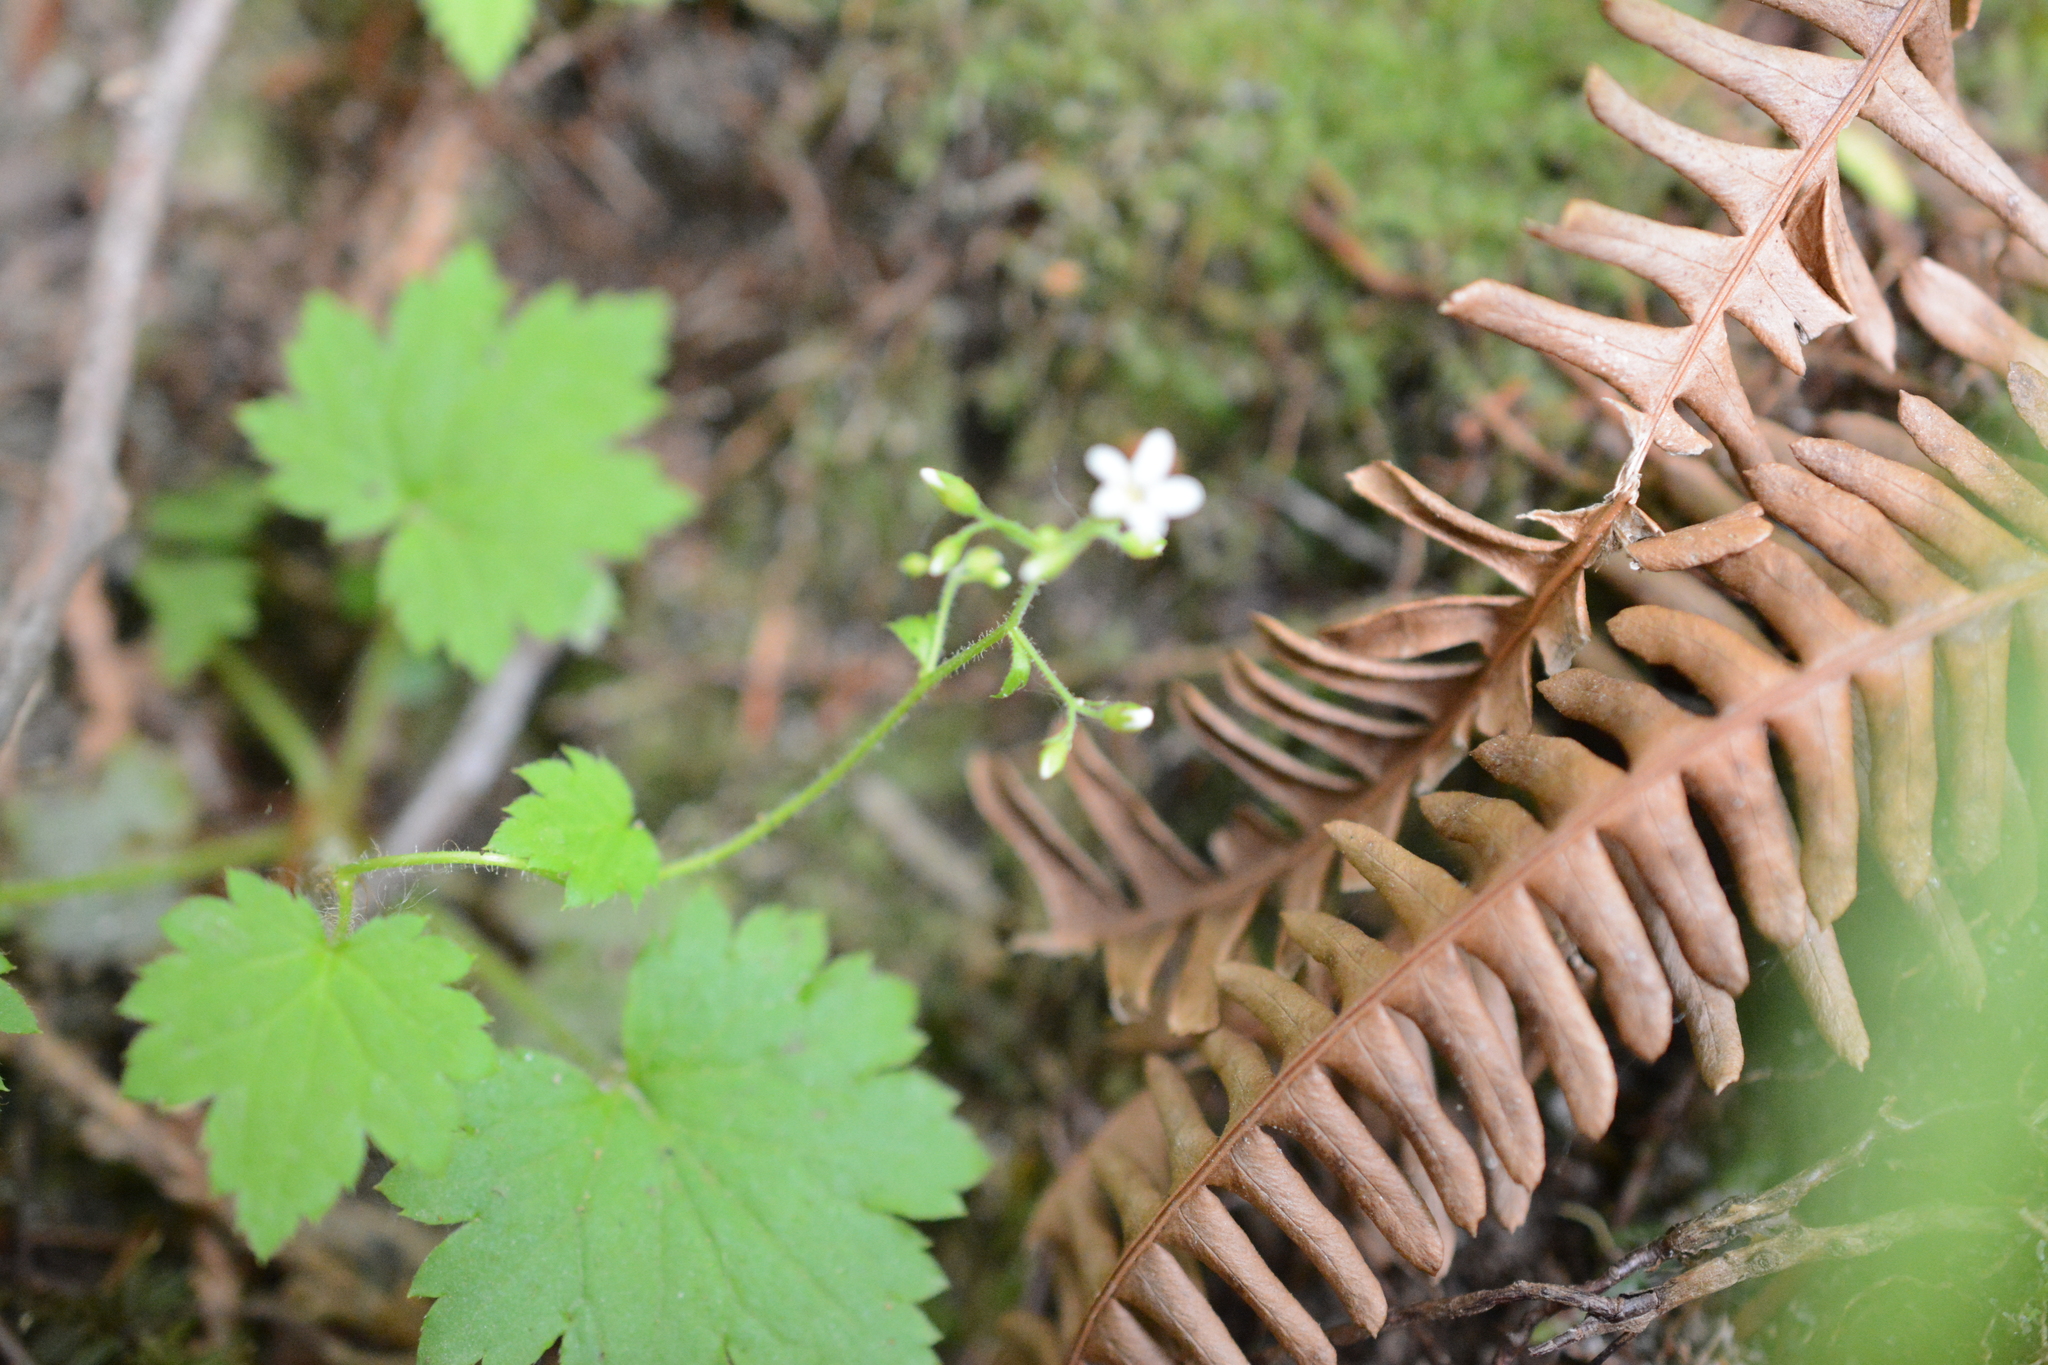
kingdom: Plantae
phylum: Tracheophyta
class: Magnoliopsida
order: Saxifragales
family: Saxifragaceae
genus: Boykinia
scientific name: Boykinia occidentalis
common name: Coast boykinia
